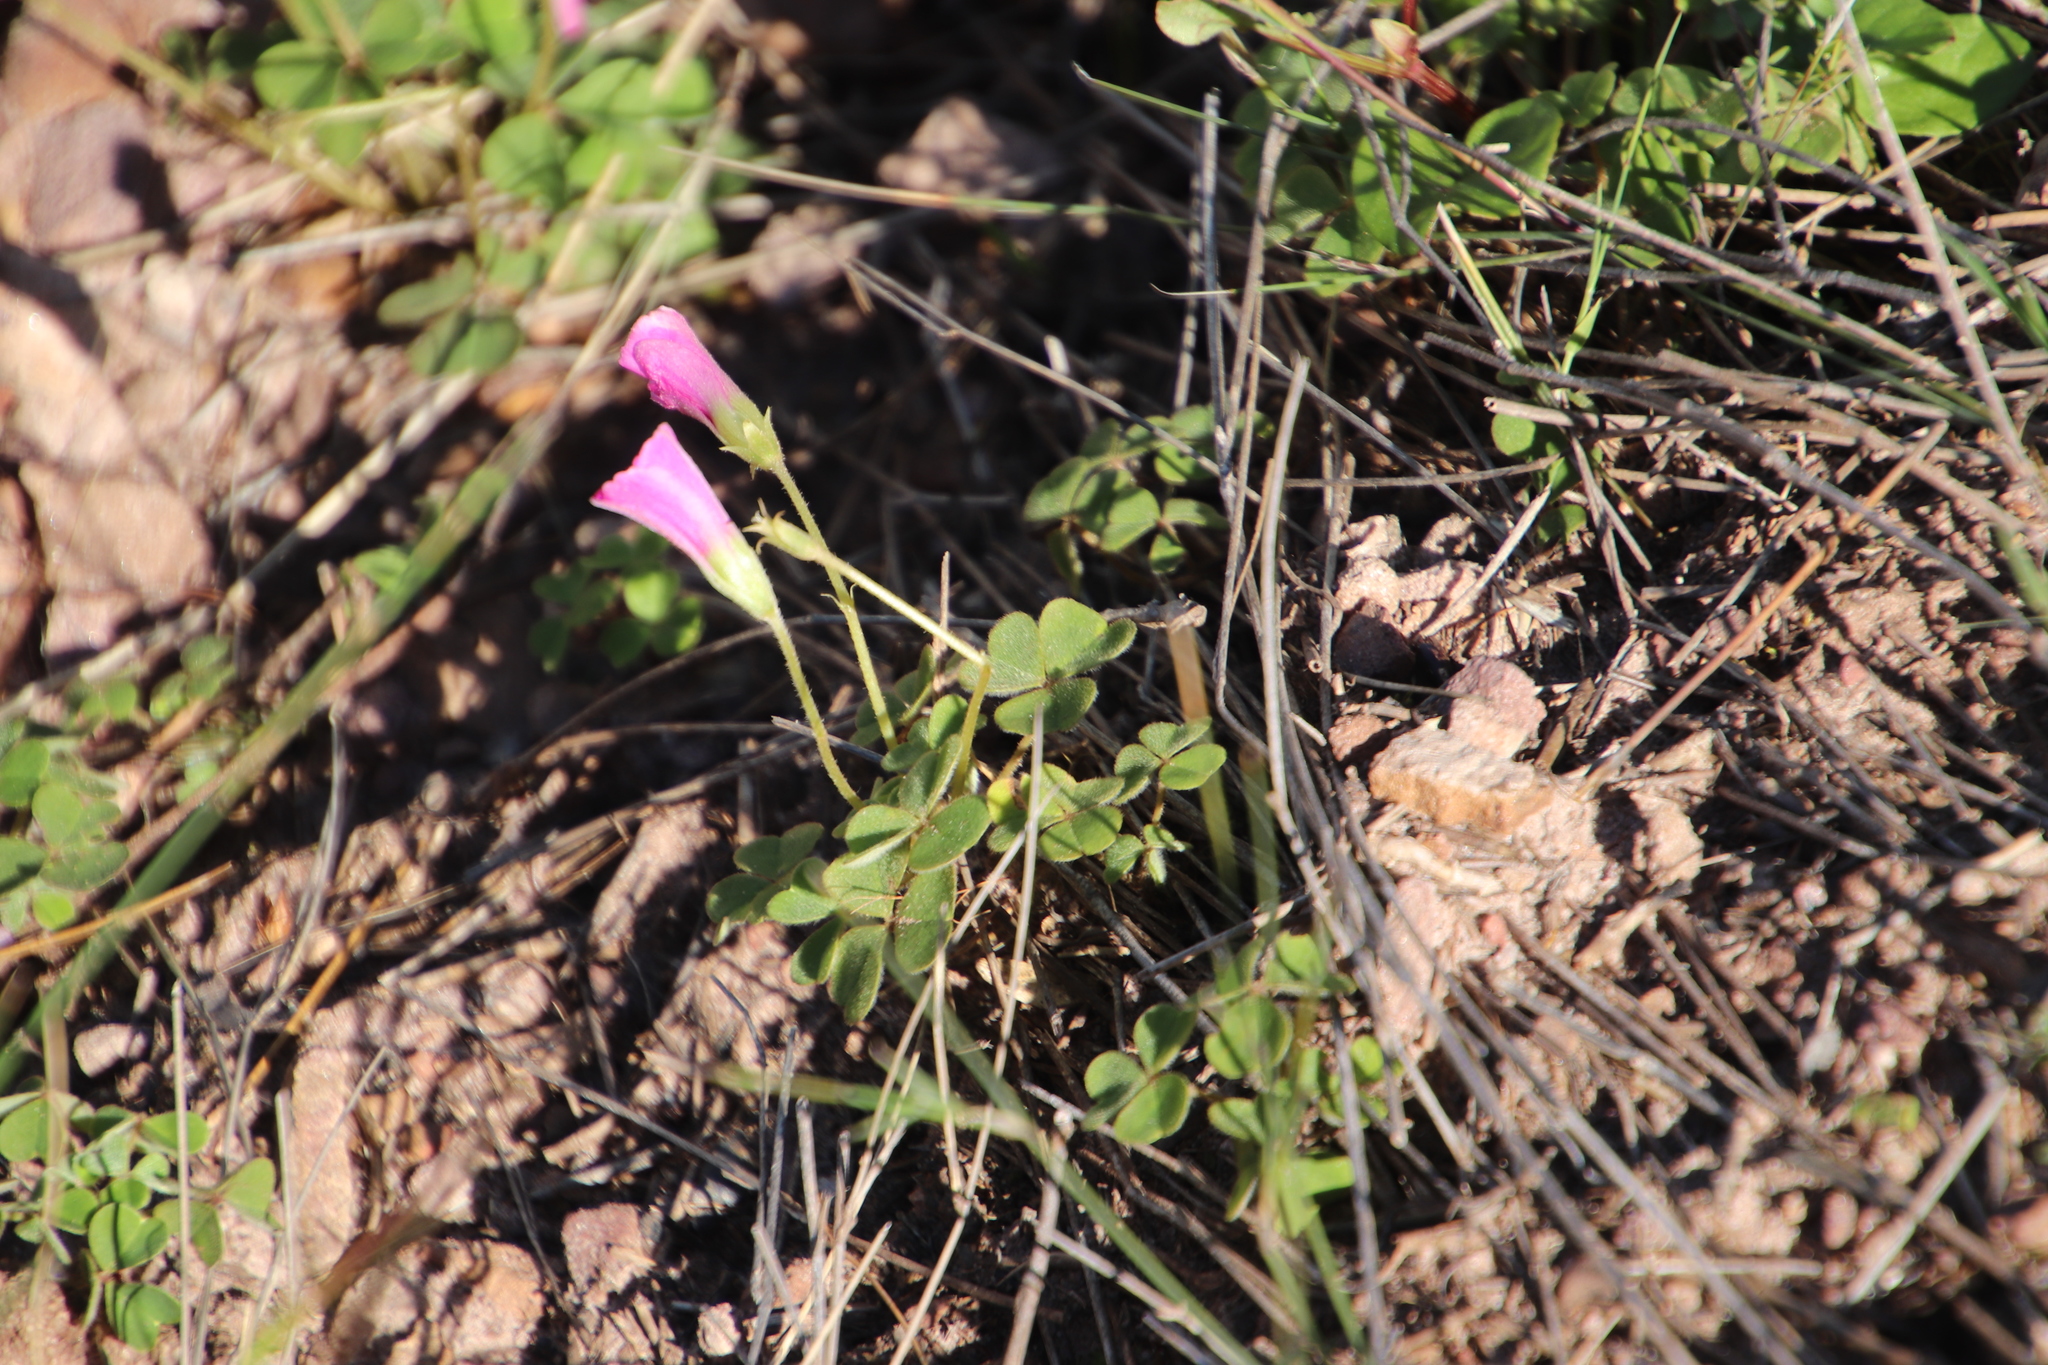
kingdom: Plantae
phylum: Tracheophyta
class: Magnoliopsida
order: Oxalidales
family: Oxalidaceae
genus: Oxalis
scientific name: Oxalis lanata
